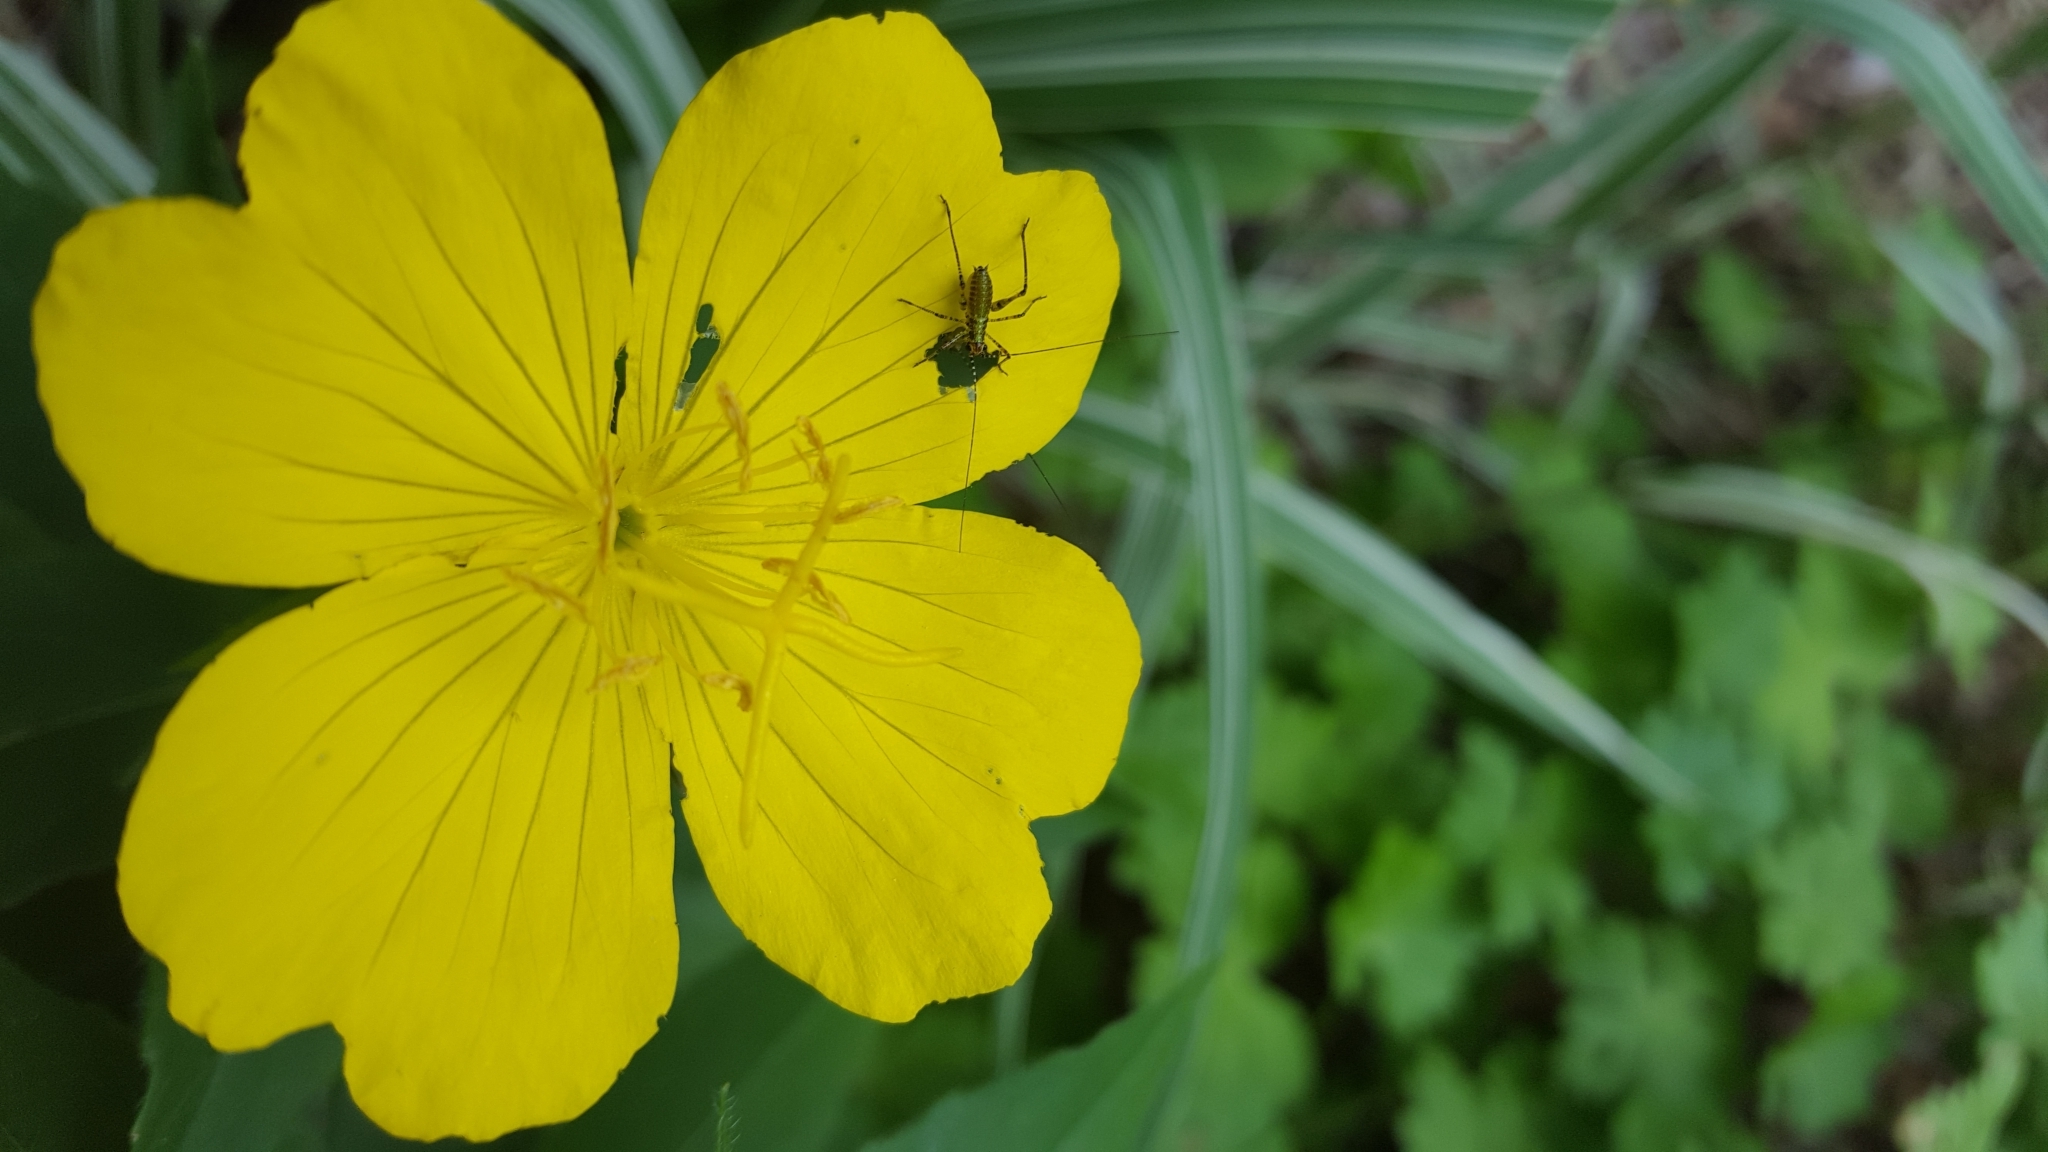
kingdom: Animalia
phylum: Arthropoda
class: Insecta
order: Orthoptera
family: Tettigoniidae
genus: Phaneroptera
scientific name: Phaneroptera nana
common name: Southern sickle bush-cricket
